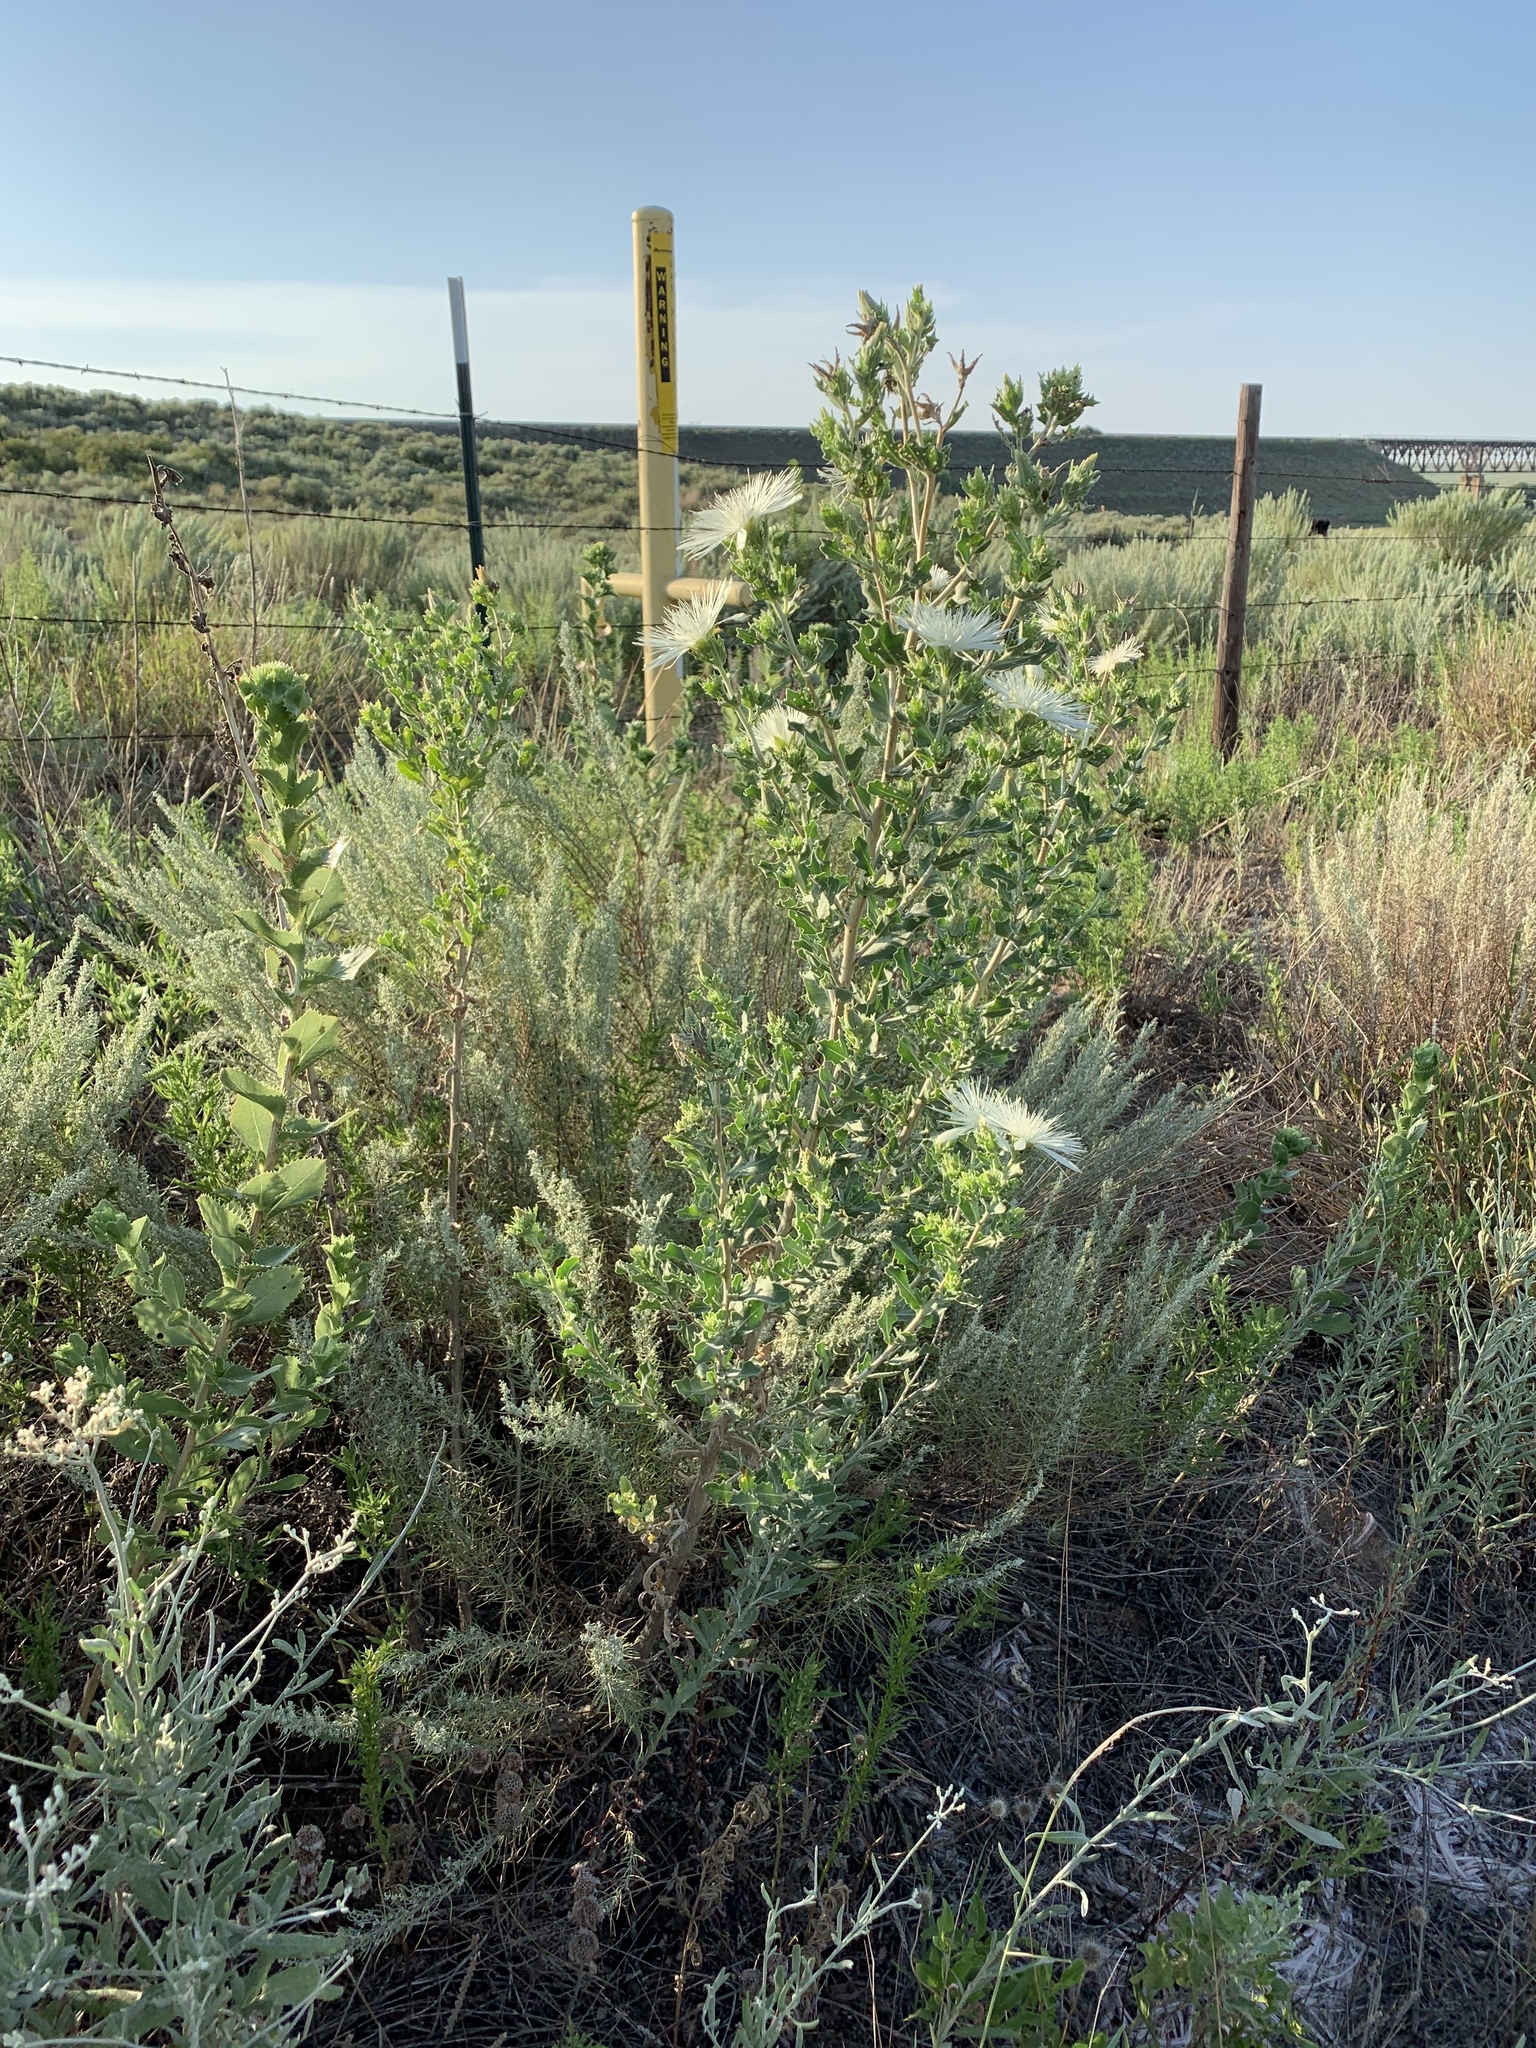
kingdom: Plantae
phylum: Tracheophyta
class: Magnoliopsida
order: Cornales
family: Loasaceae
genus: Mentzelia
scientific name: Mentzelia nuda
